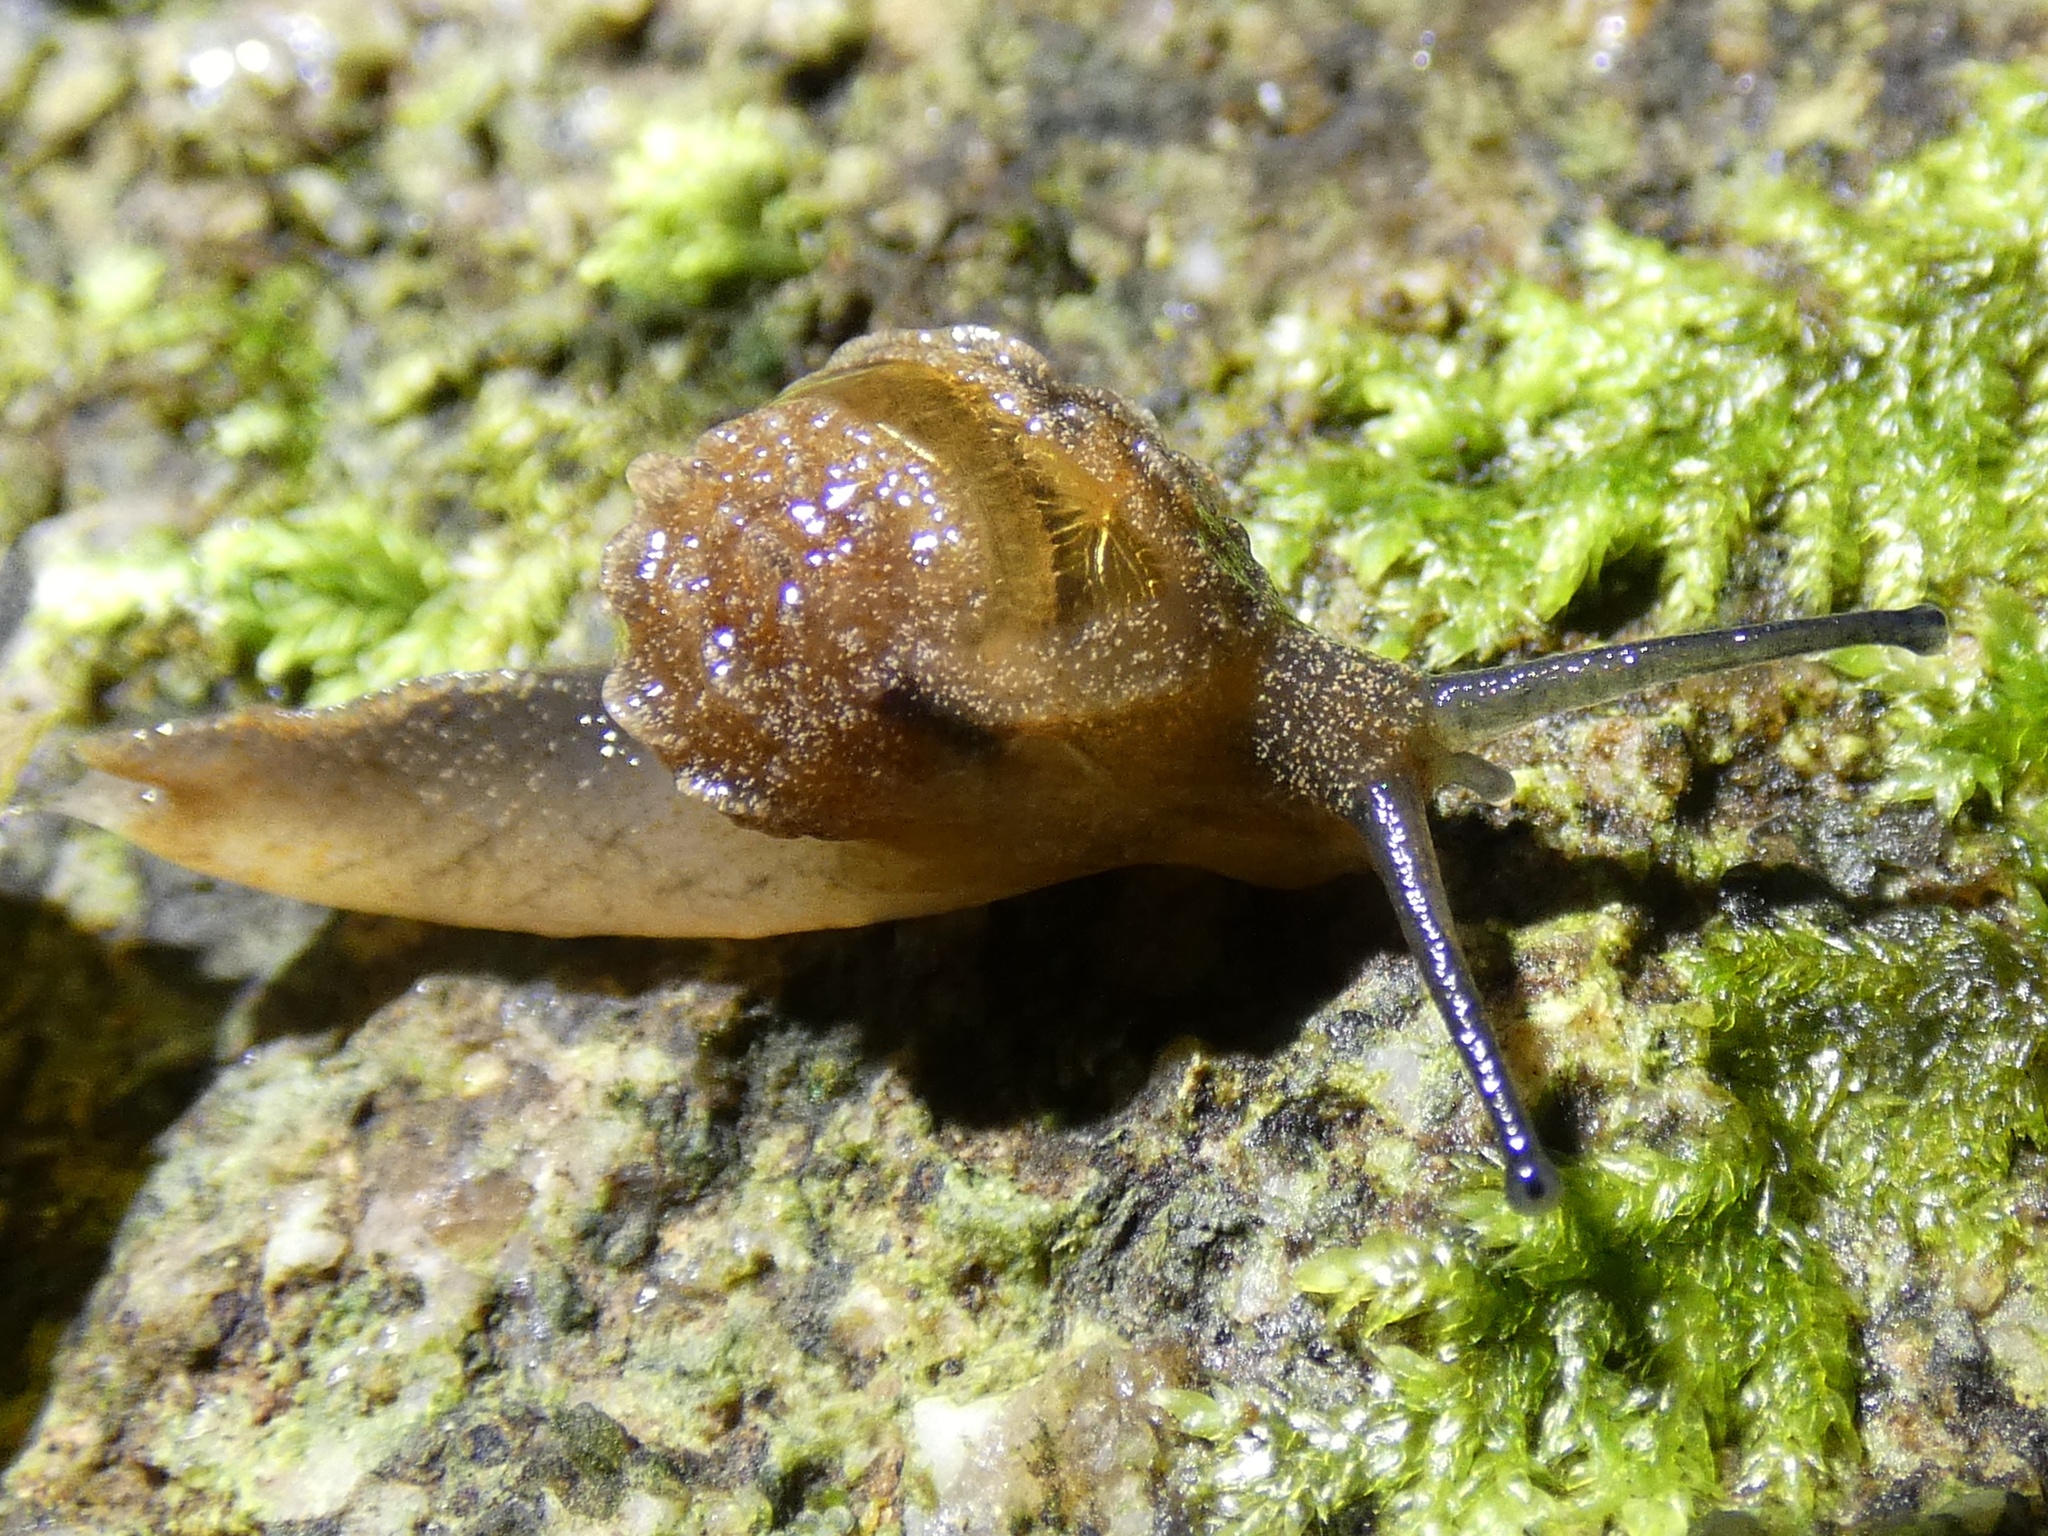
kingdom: Animalia
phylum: Mollusca
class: Gastropoda
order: Stylommatophora
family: Helicarionidae
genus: Fastosarion
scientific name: Fastosarion brazieri
